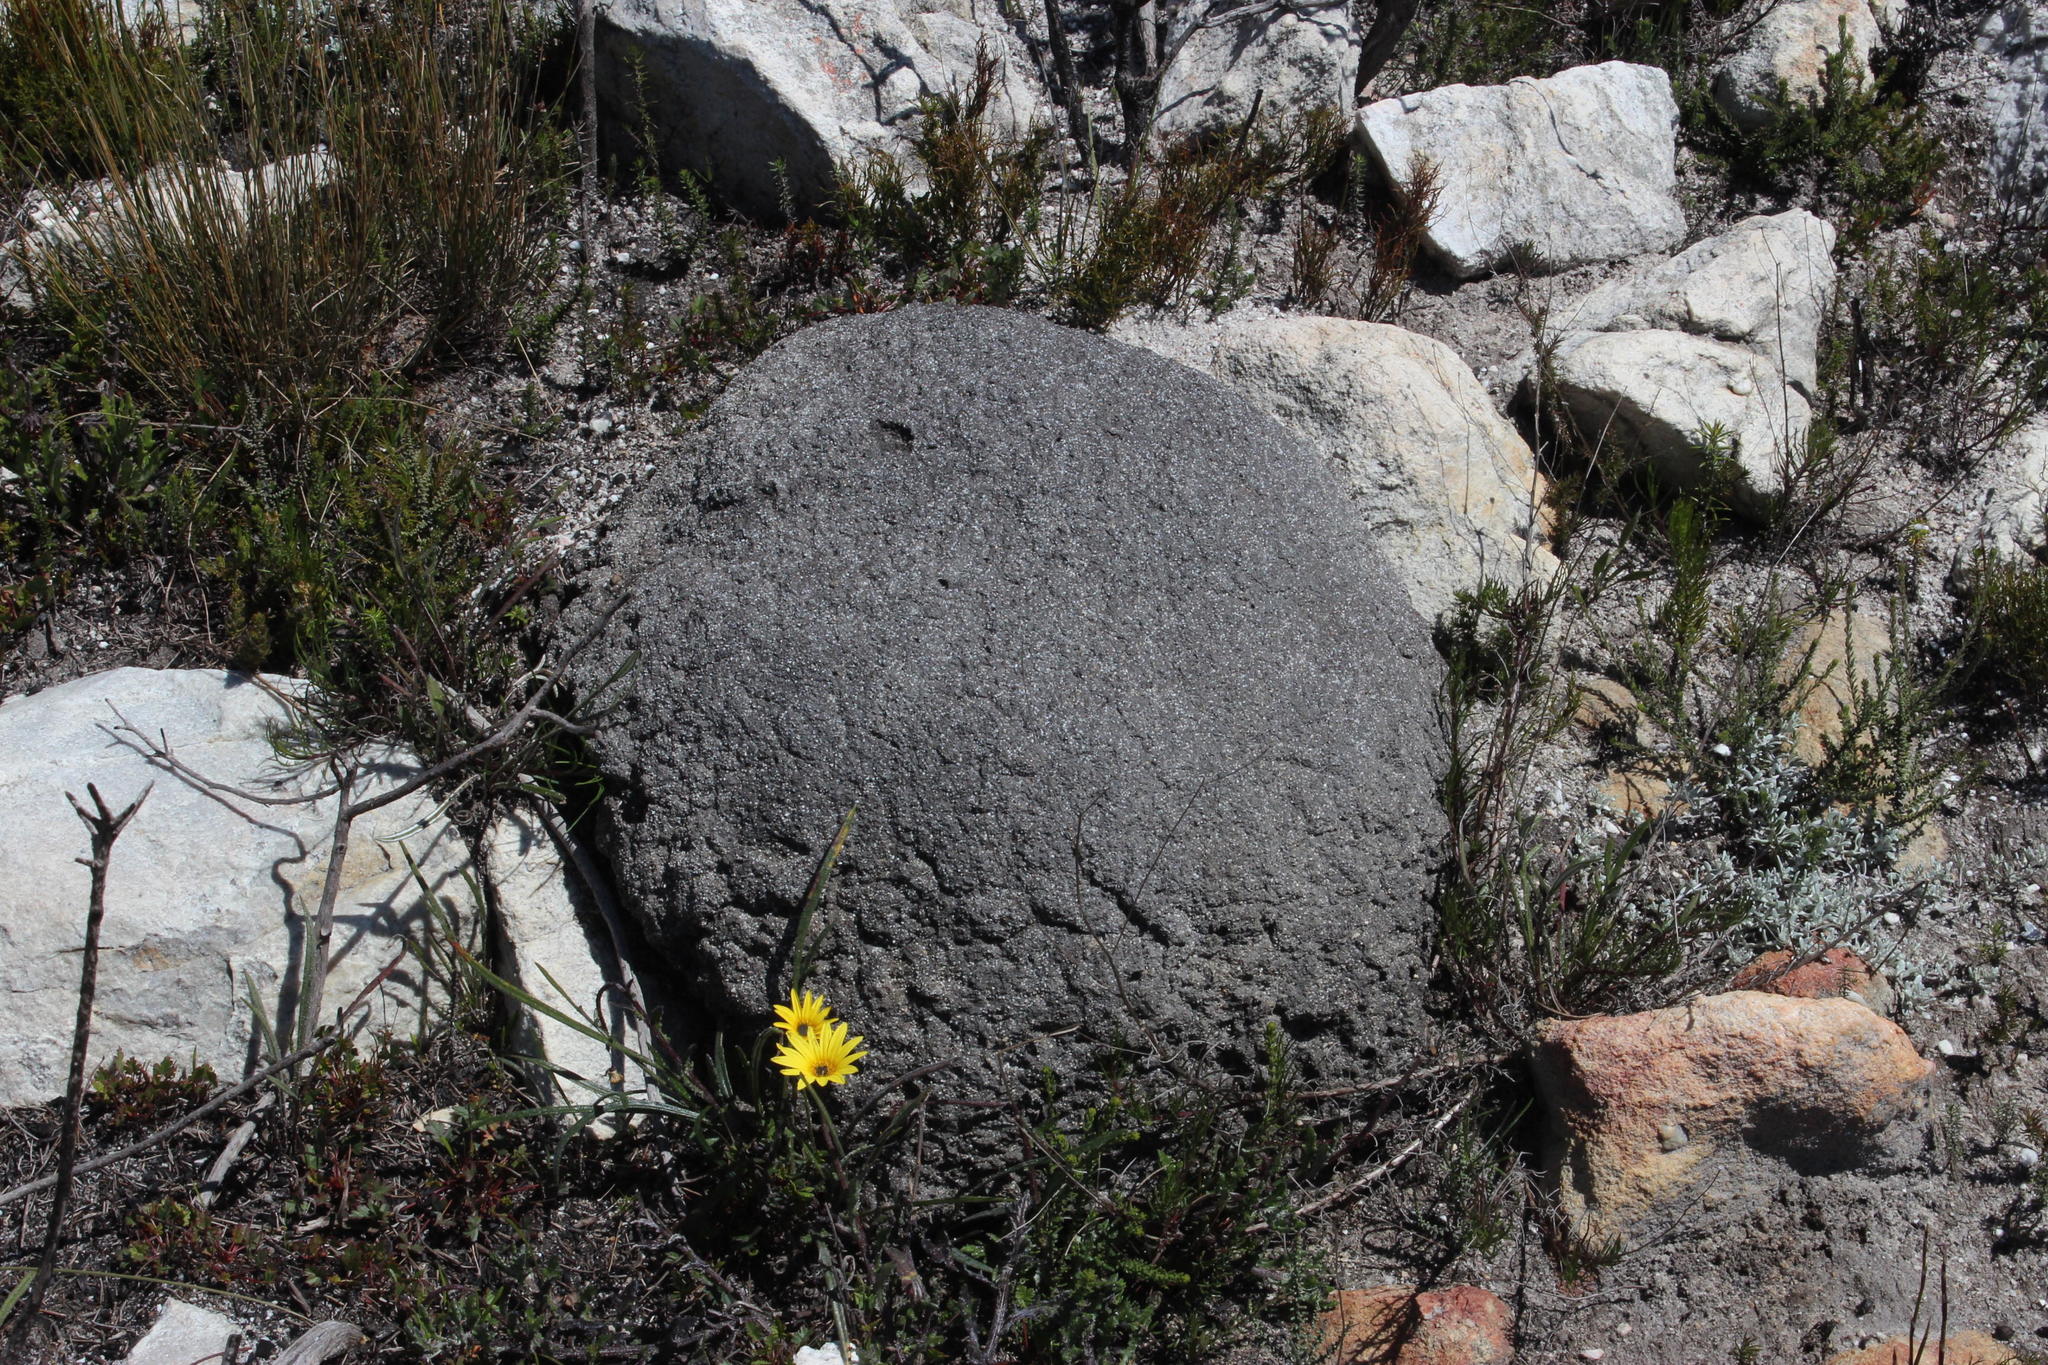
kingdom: Animalia
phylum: Arthropoda
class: Insecta
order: Blattodea
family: Termitidae
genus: Amitermes
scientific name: Amitermes hastatus
